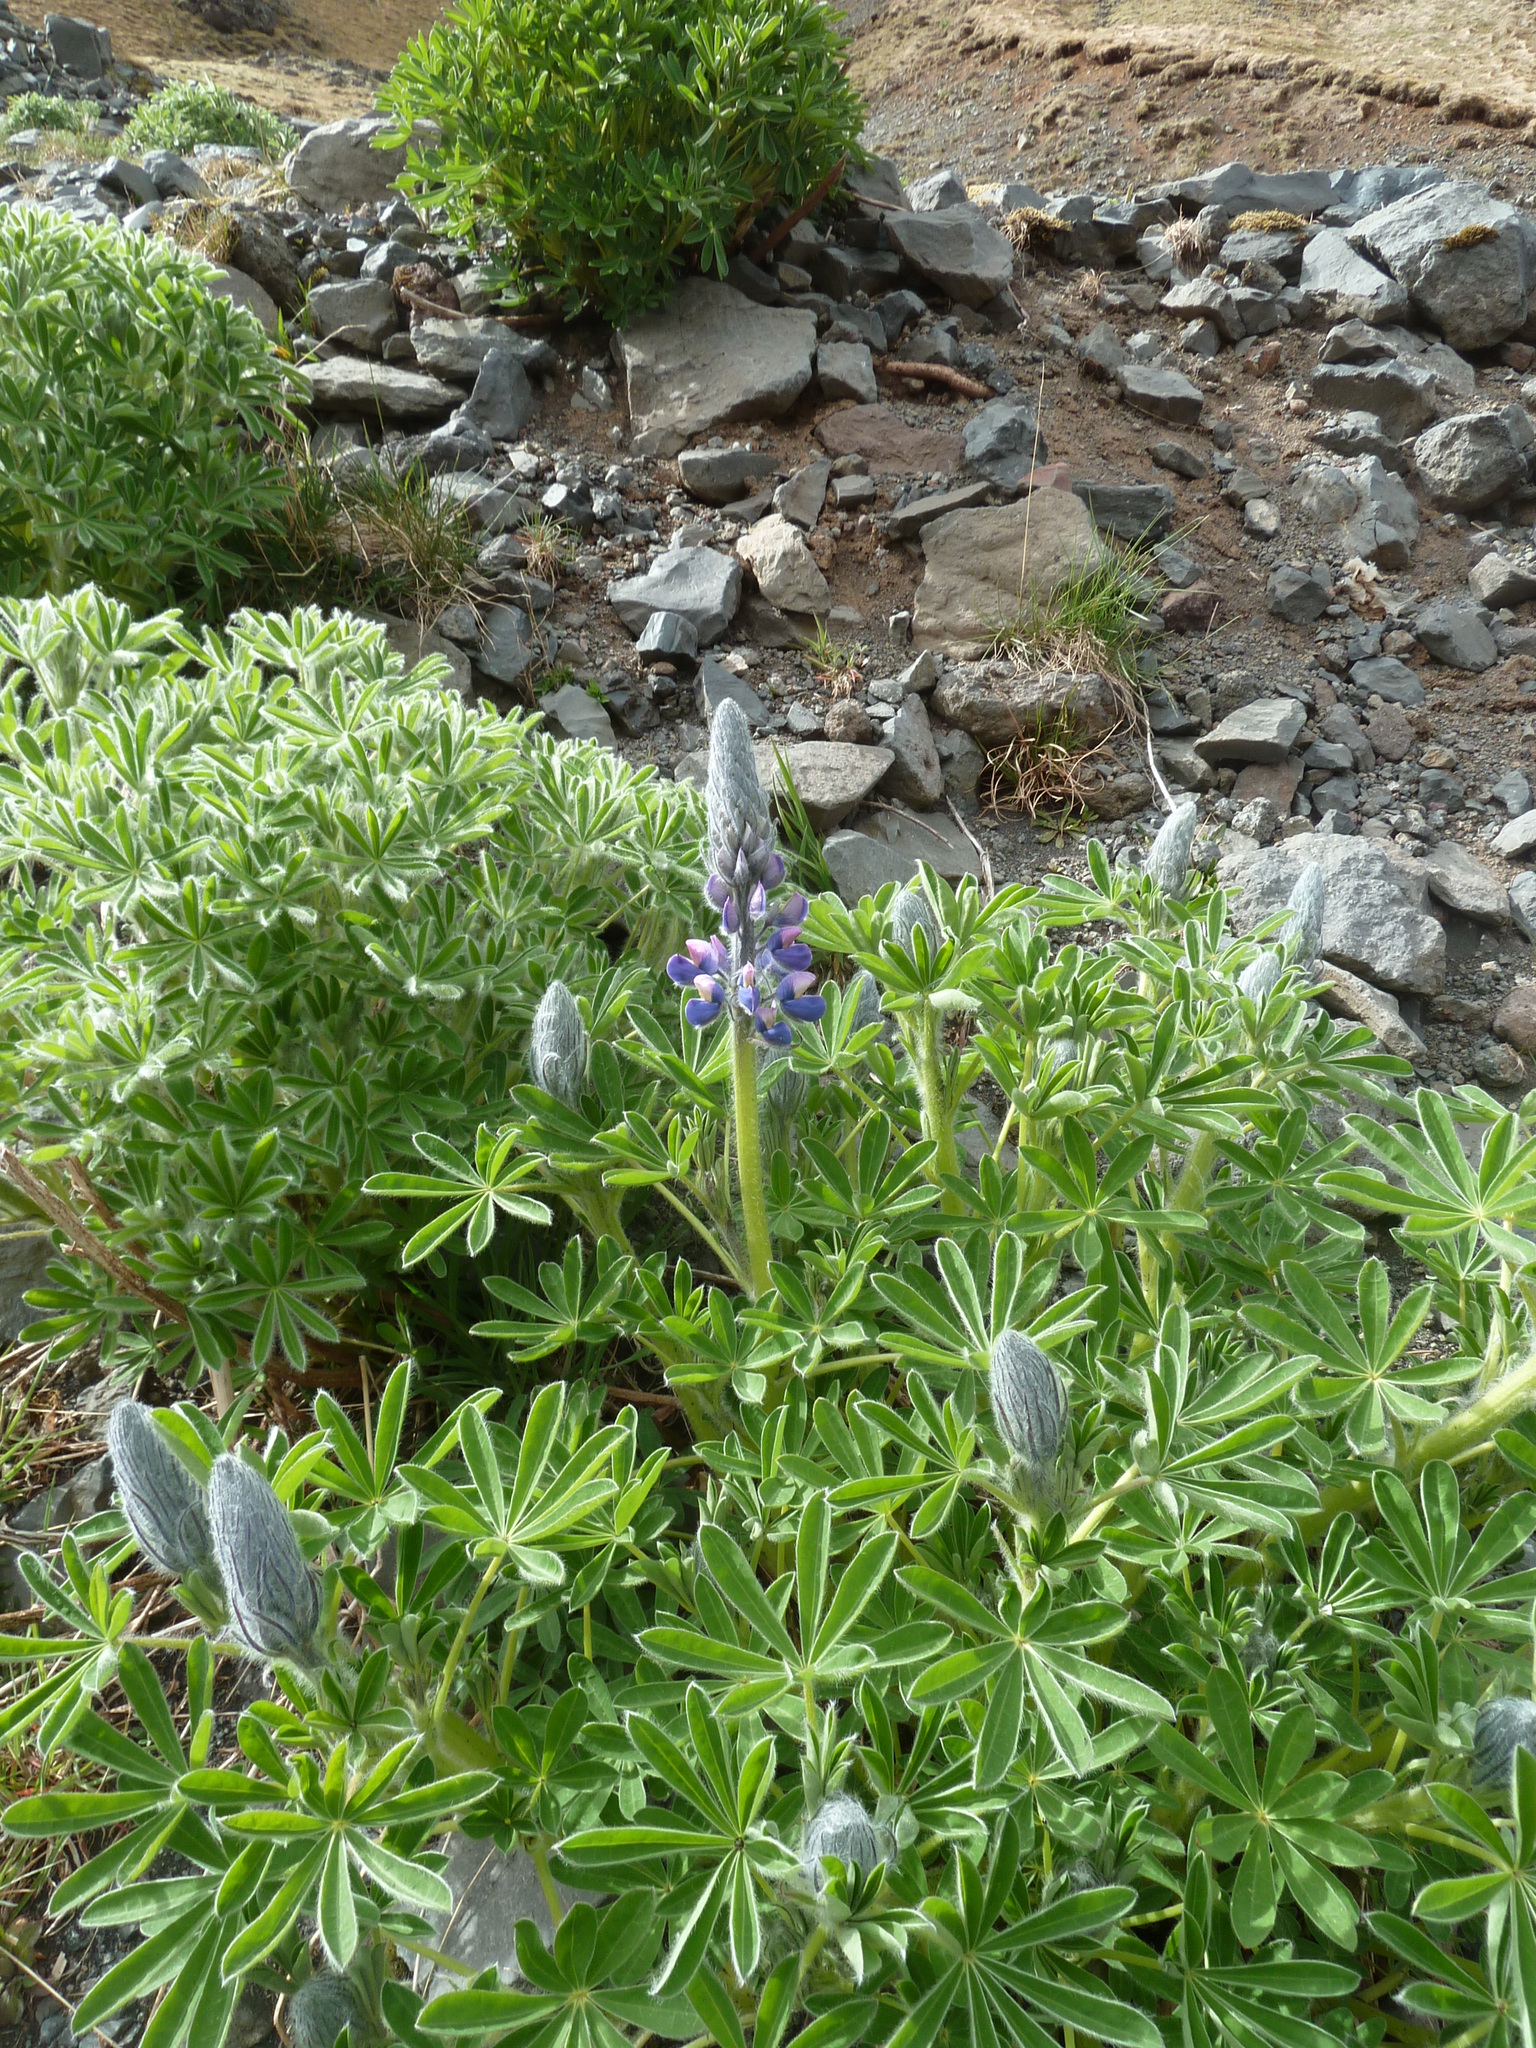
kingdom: Plantae
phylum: Tracheophyta
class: Magnoliopsida
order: Fabales
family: Fabaceae
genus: Lupinus
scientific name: Lupinus nootkatensis
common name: Nootka lupine
